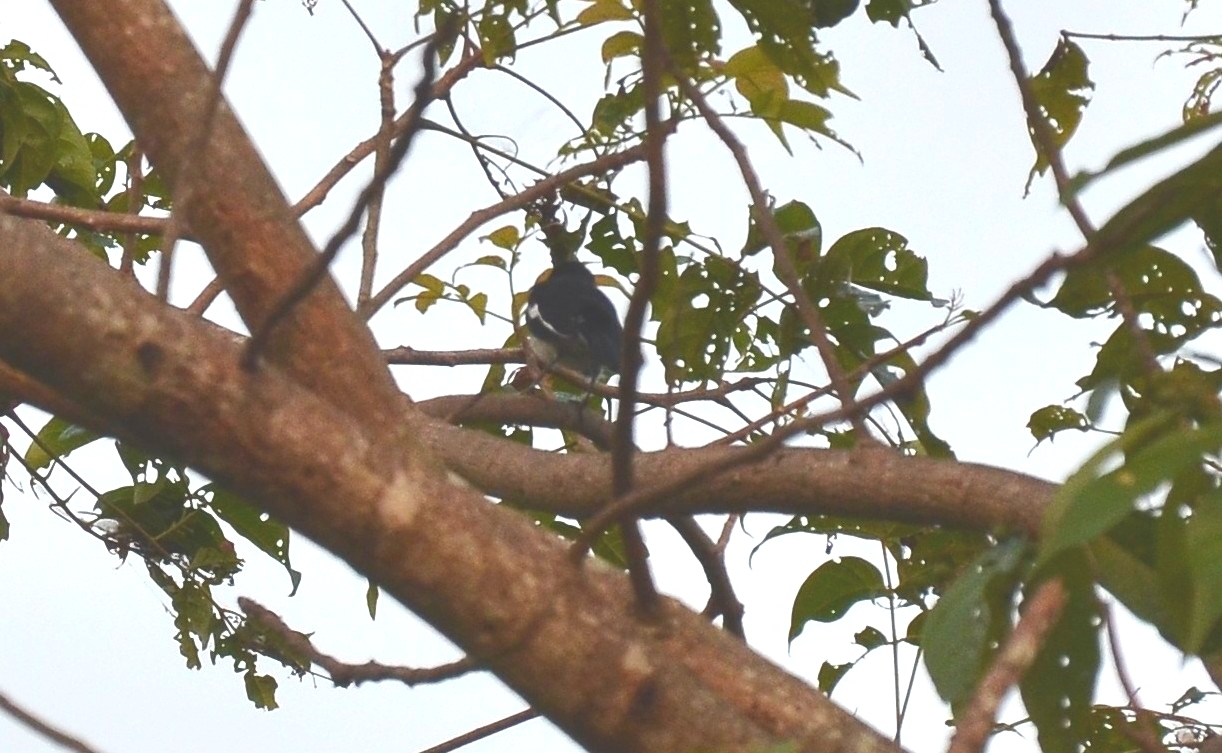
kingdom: Animalia
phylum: Chordata
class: Aves
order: Passeriformes
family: Muscicapidae
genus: Copsychus
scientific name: Copsychus saularis
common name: Oriental magpie-robin
